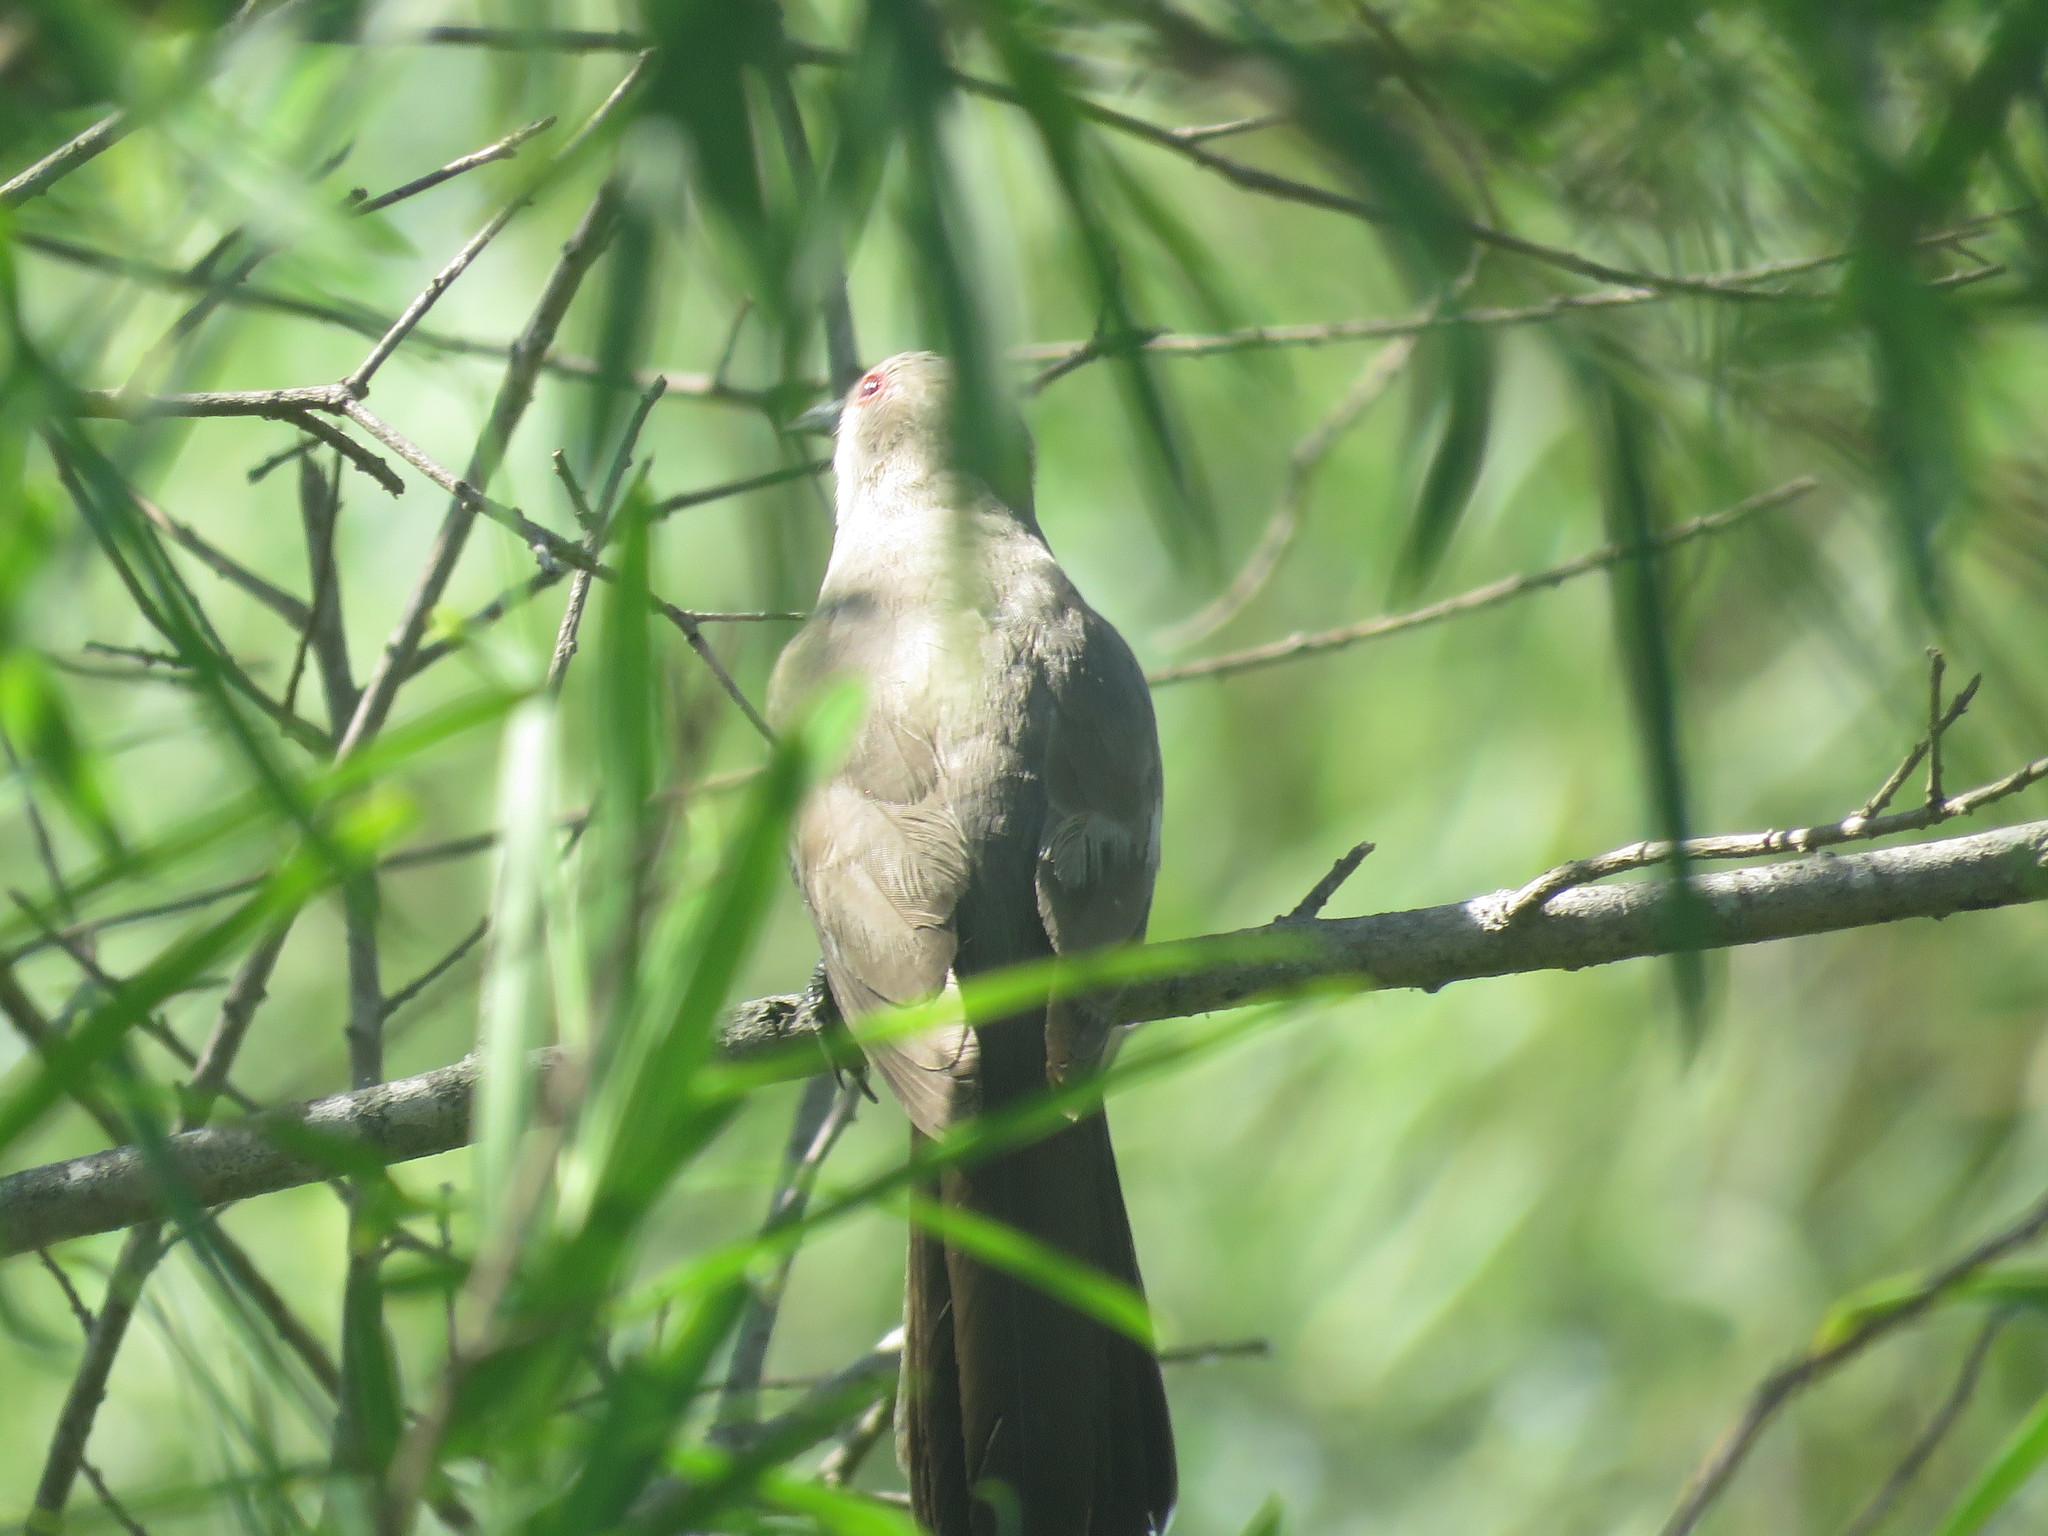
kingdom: Animalia
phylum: Chordata
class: Aves
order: Cuculiformes
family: Cuculidae
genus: Coccyzus
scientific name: Coccyzus cinereus
